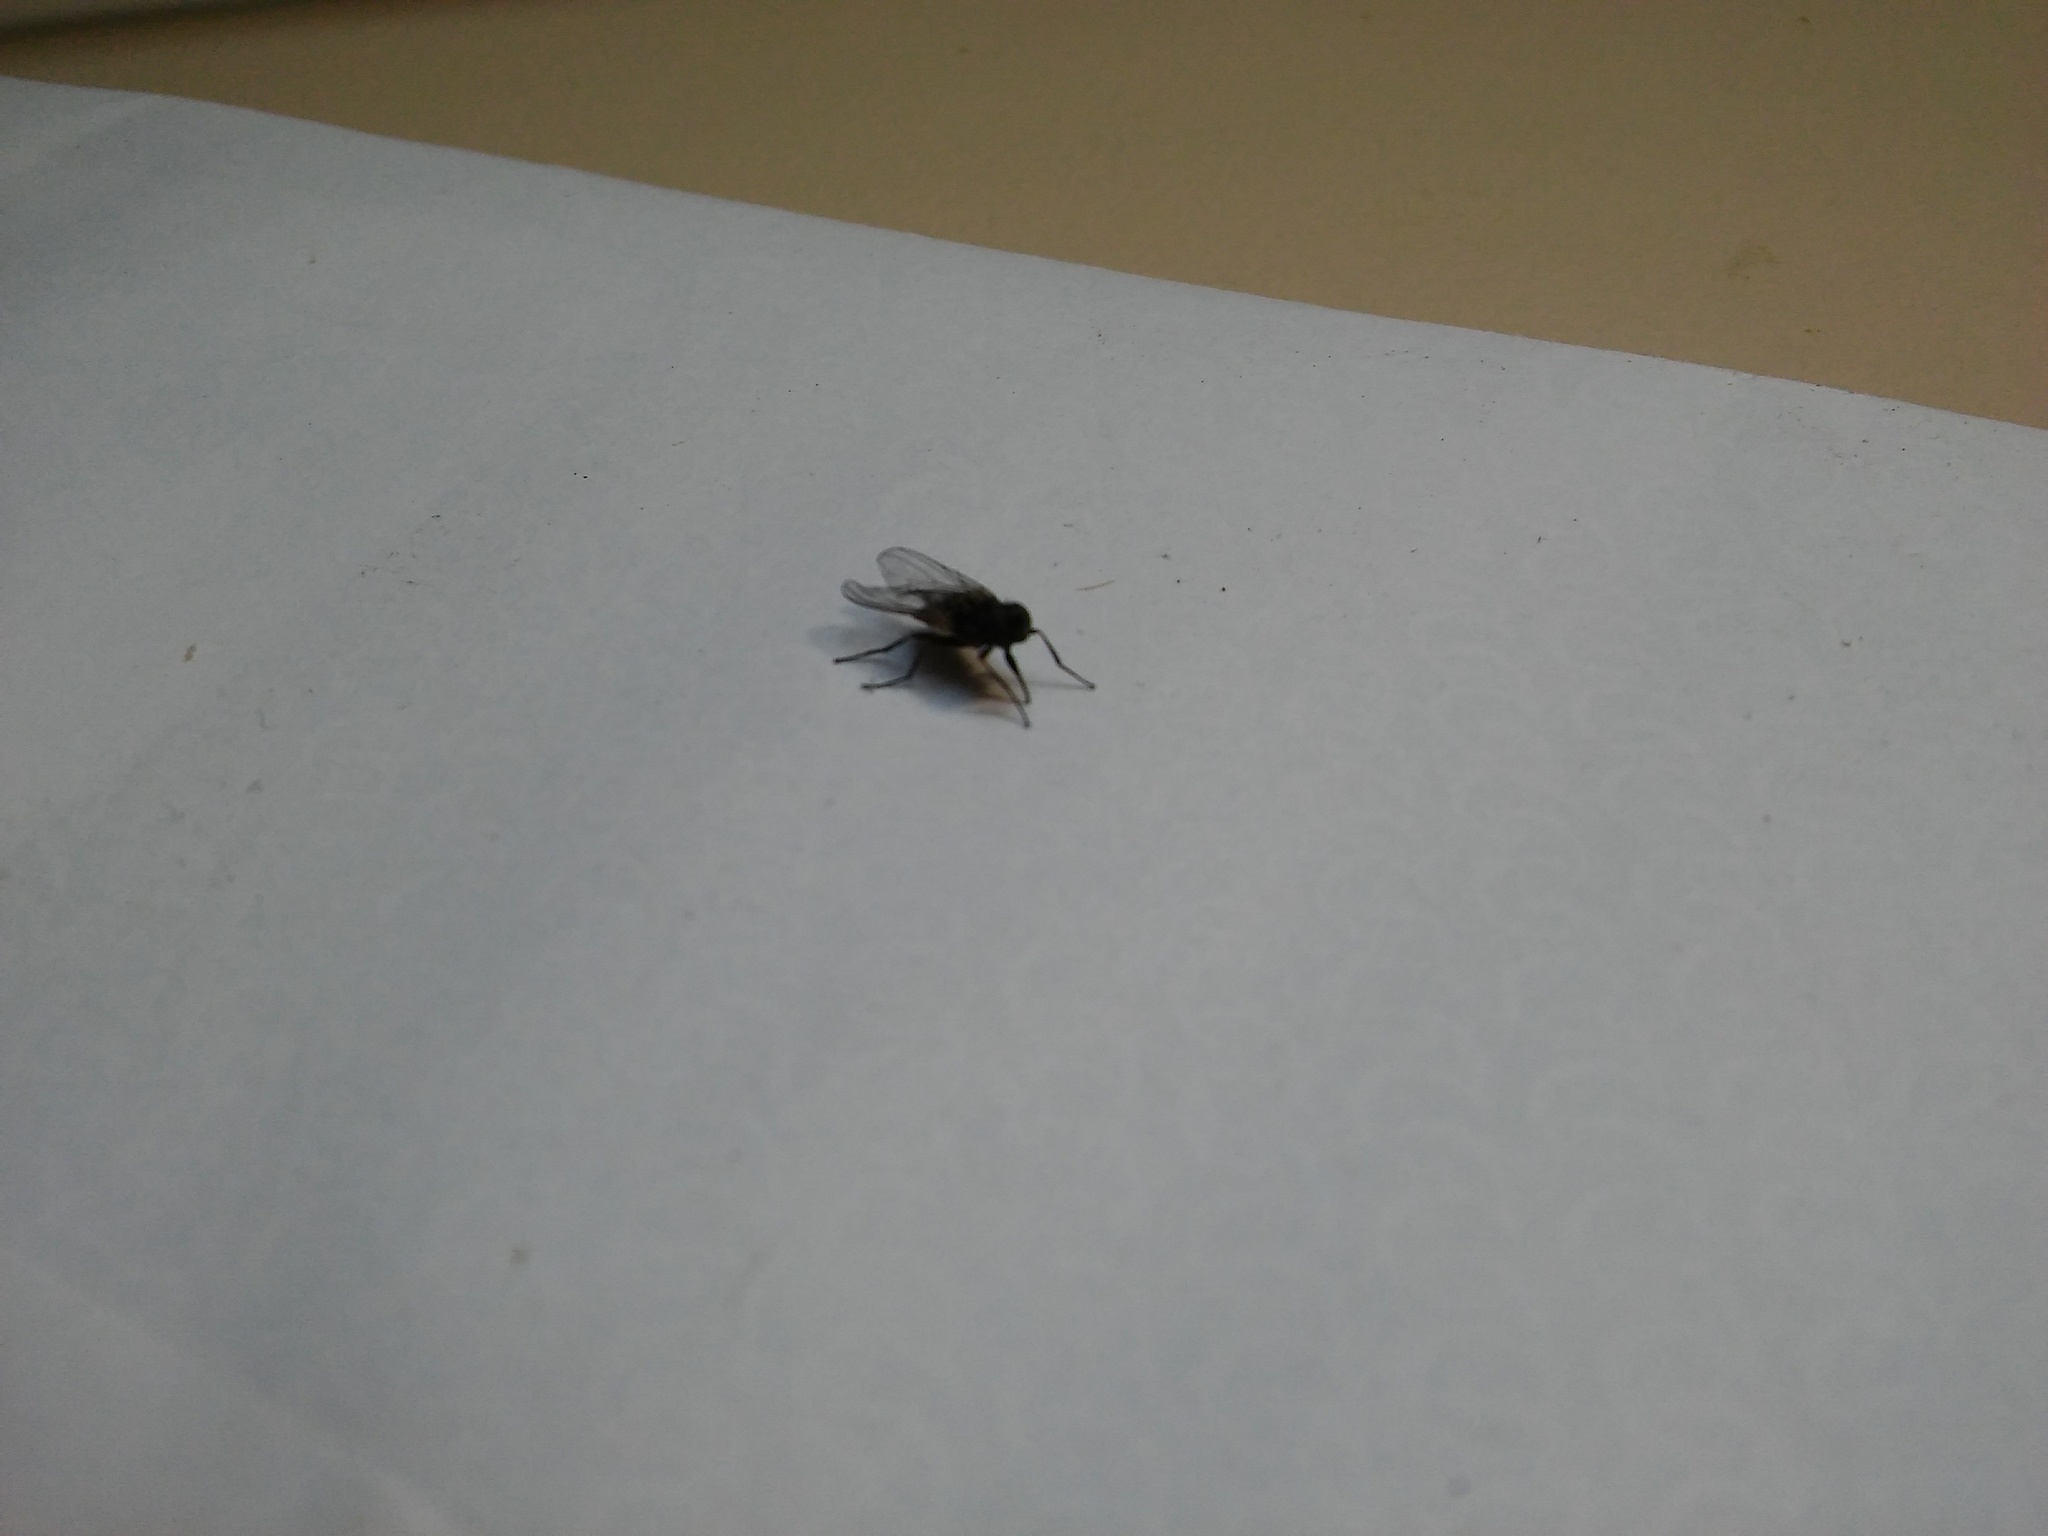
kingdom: Animalia
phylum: Arthropoda
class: Insecta
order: Diptera
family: Muscidae
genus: Stomoxys
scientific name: Stomoxys calcitrans
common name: Stable fly
